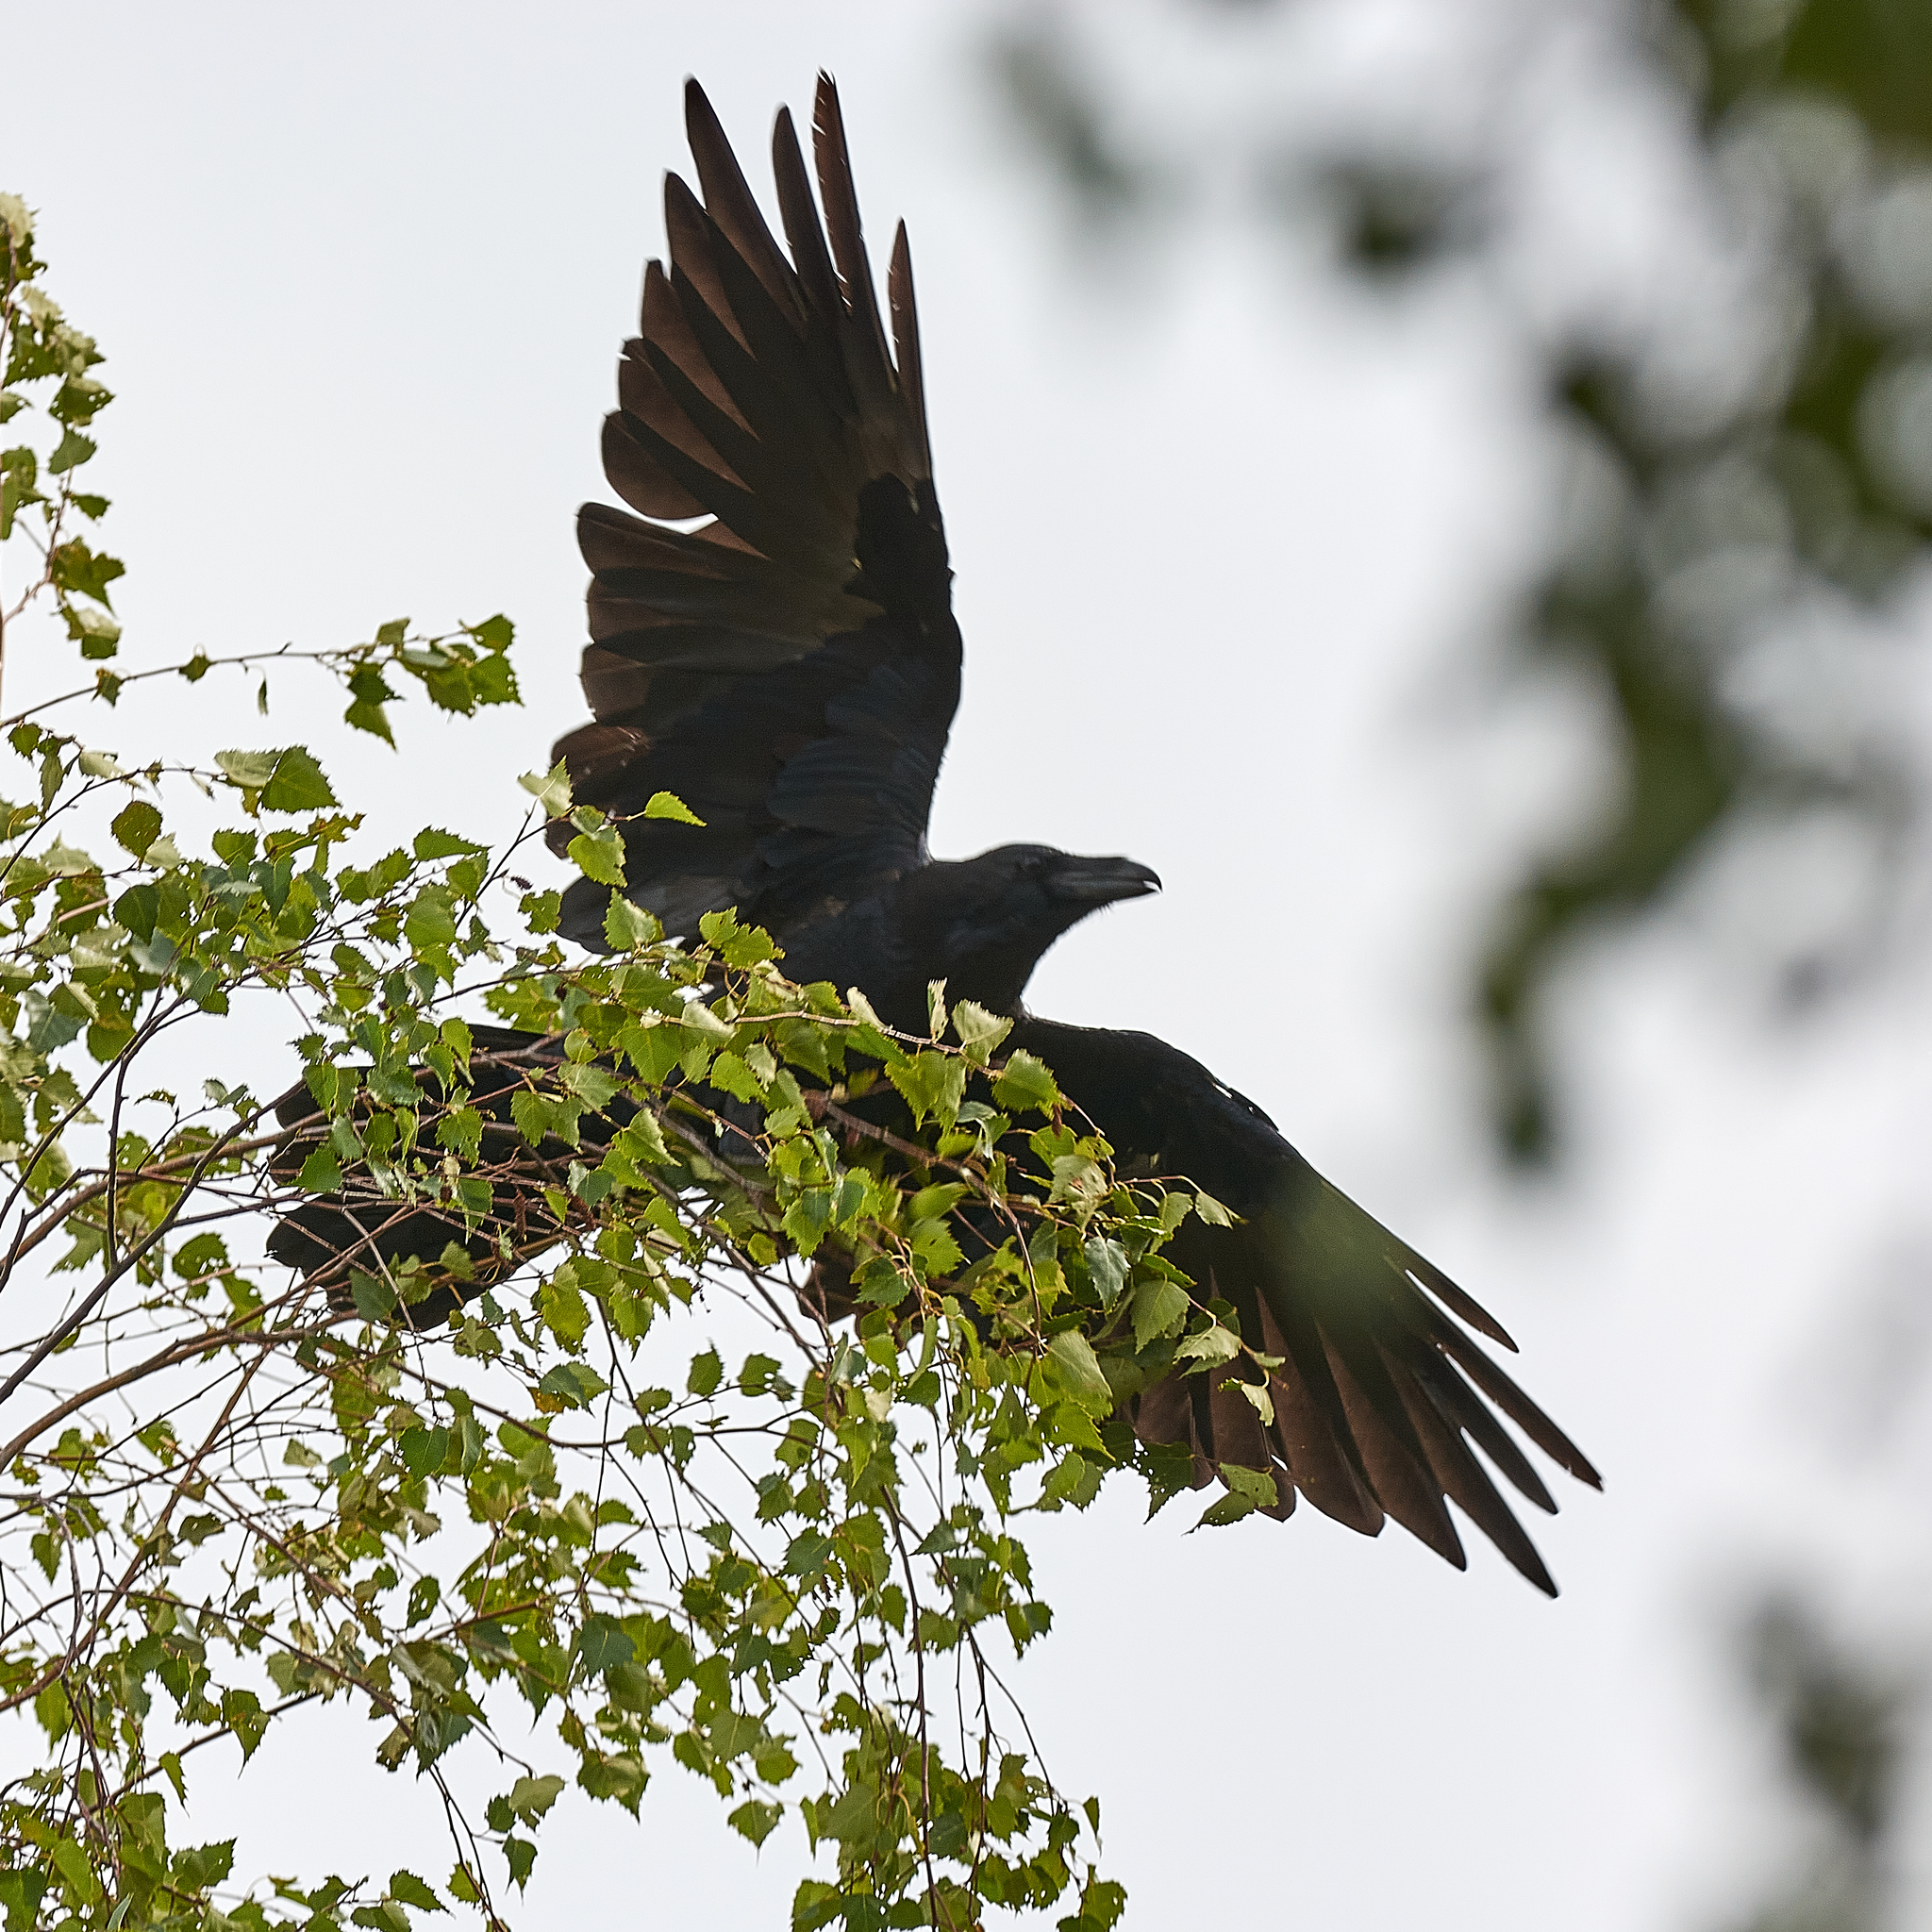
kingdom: Animalia
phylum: Chordata
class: Aves
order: Passeriformes
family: Corvidae
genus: Corvus
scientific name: Corvus corax
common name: Common raven
